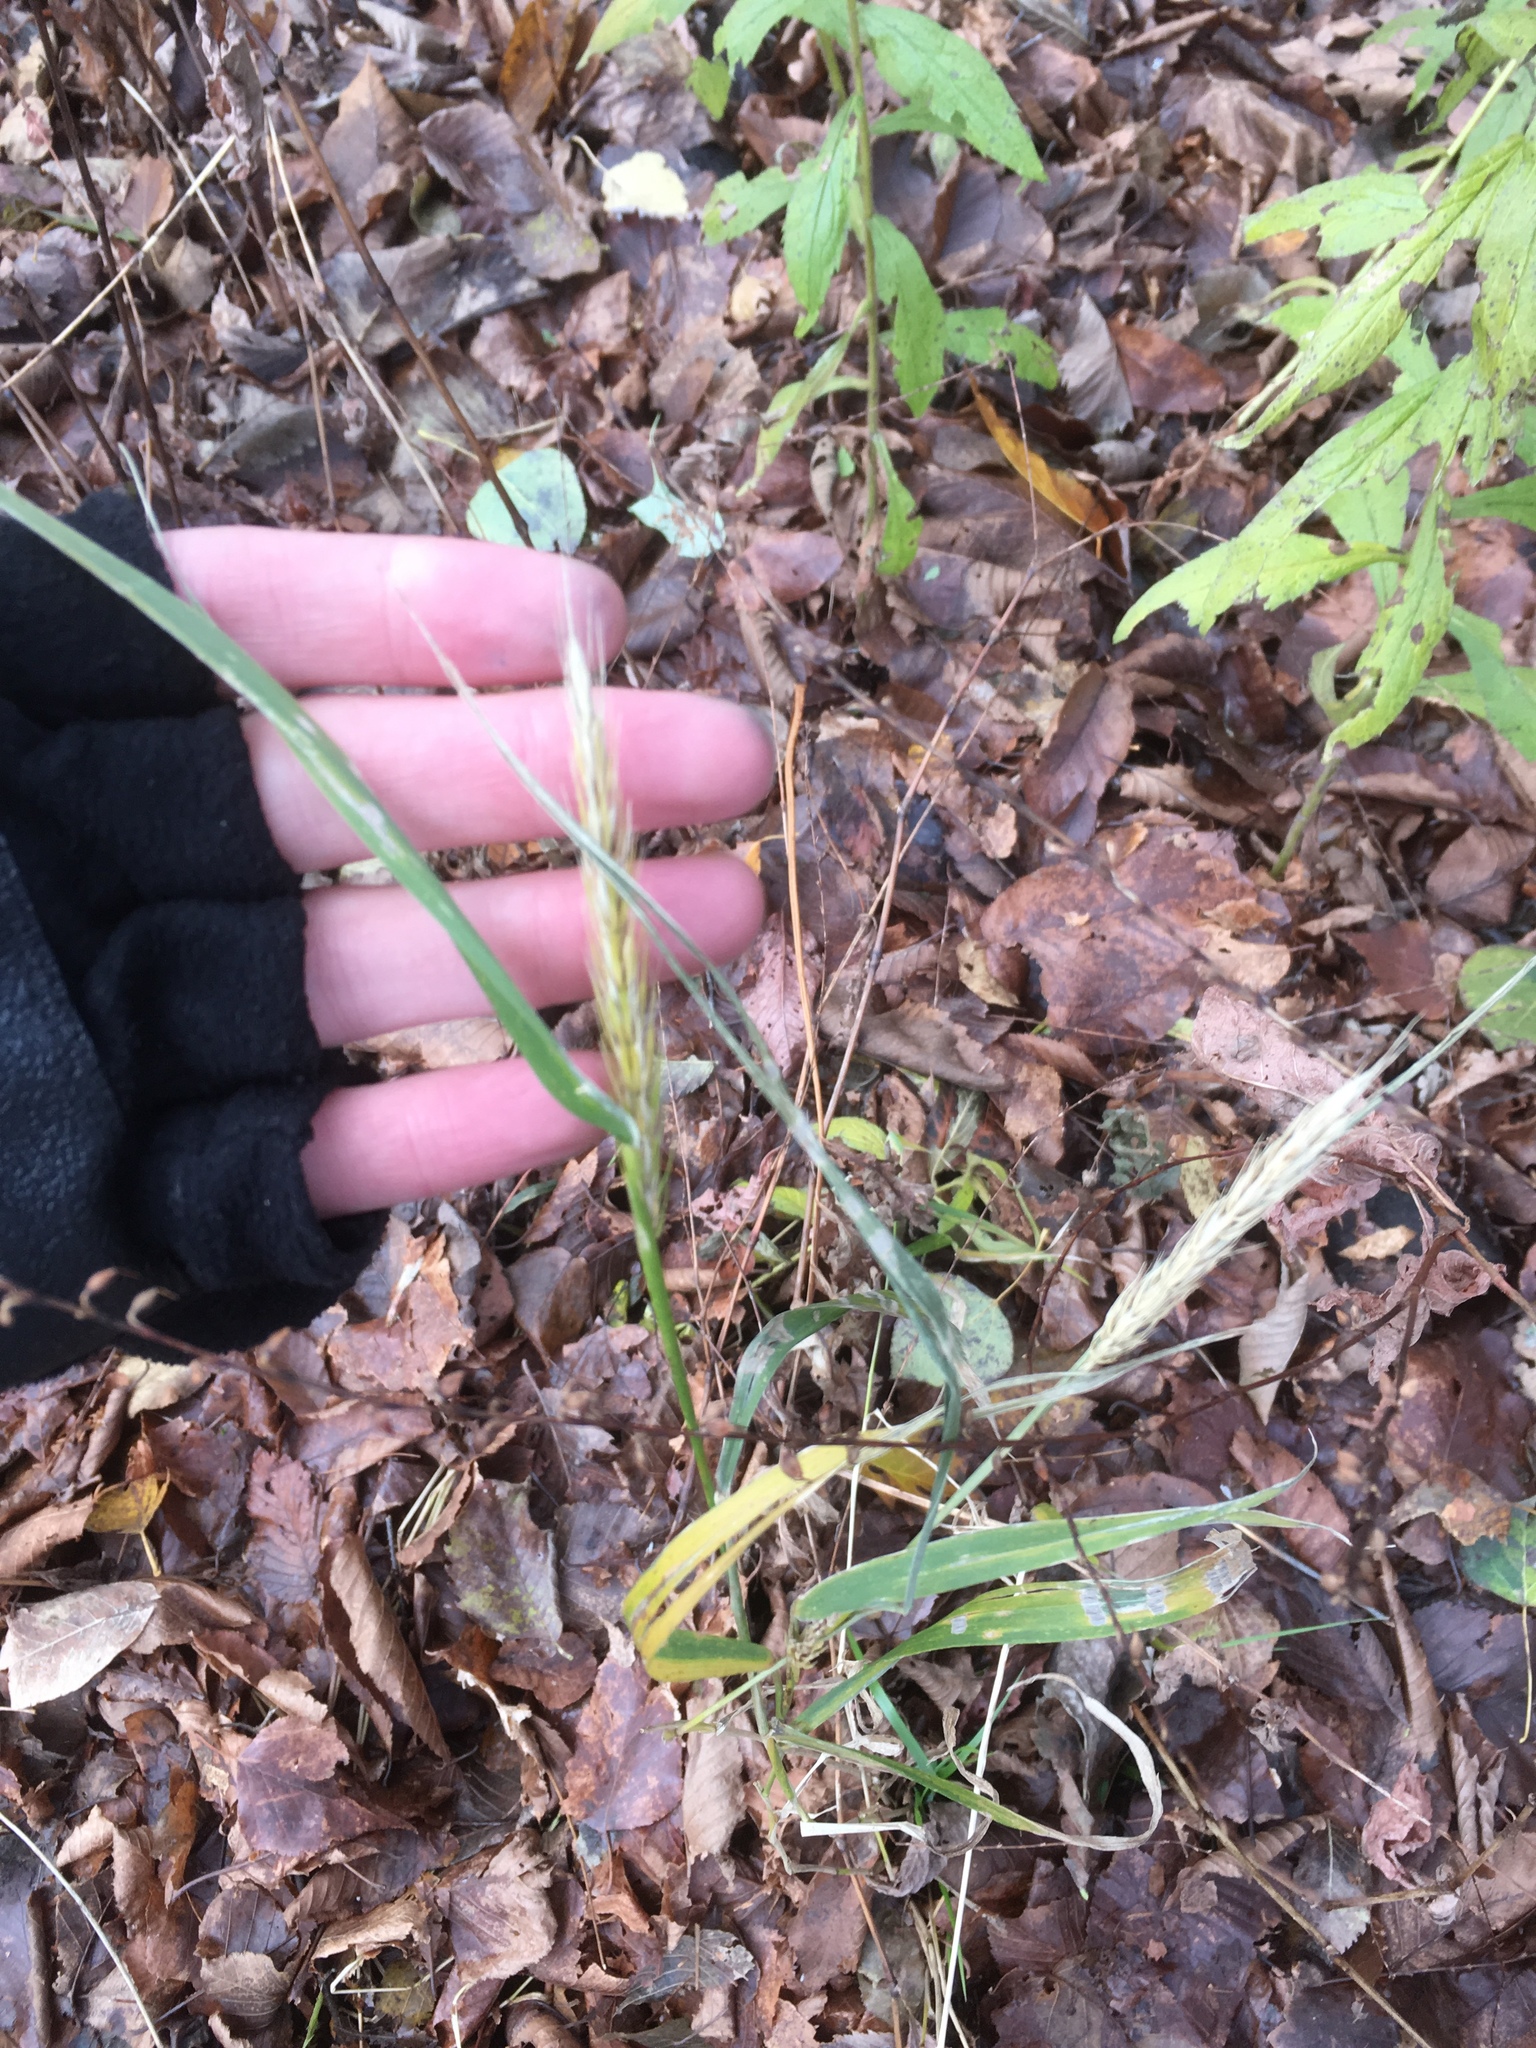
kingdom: Plantae
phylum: Tracheophyta
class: Liliopsida
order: Poales
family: Poaceae
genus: Elymus
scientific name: Elymus virginicus
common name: Common eastern wildrye
